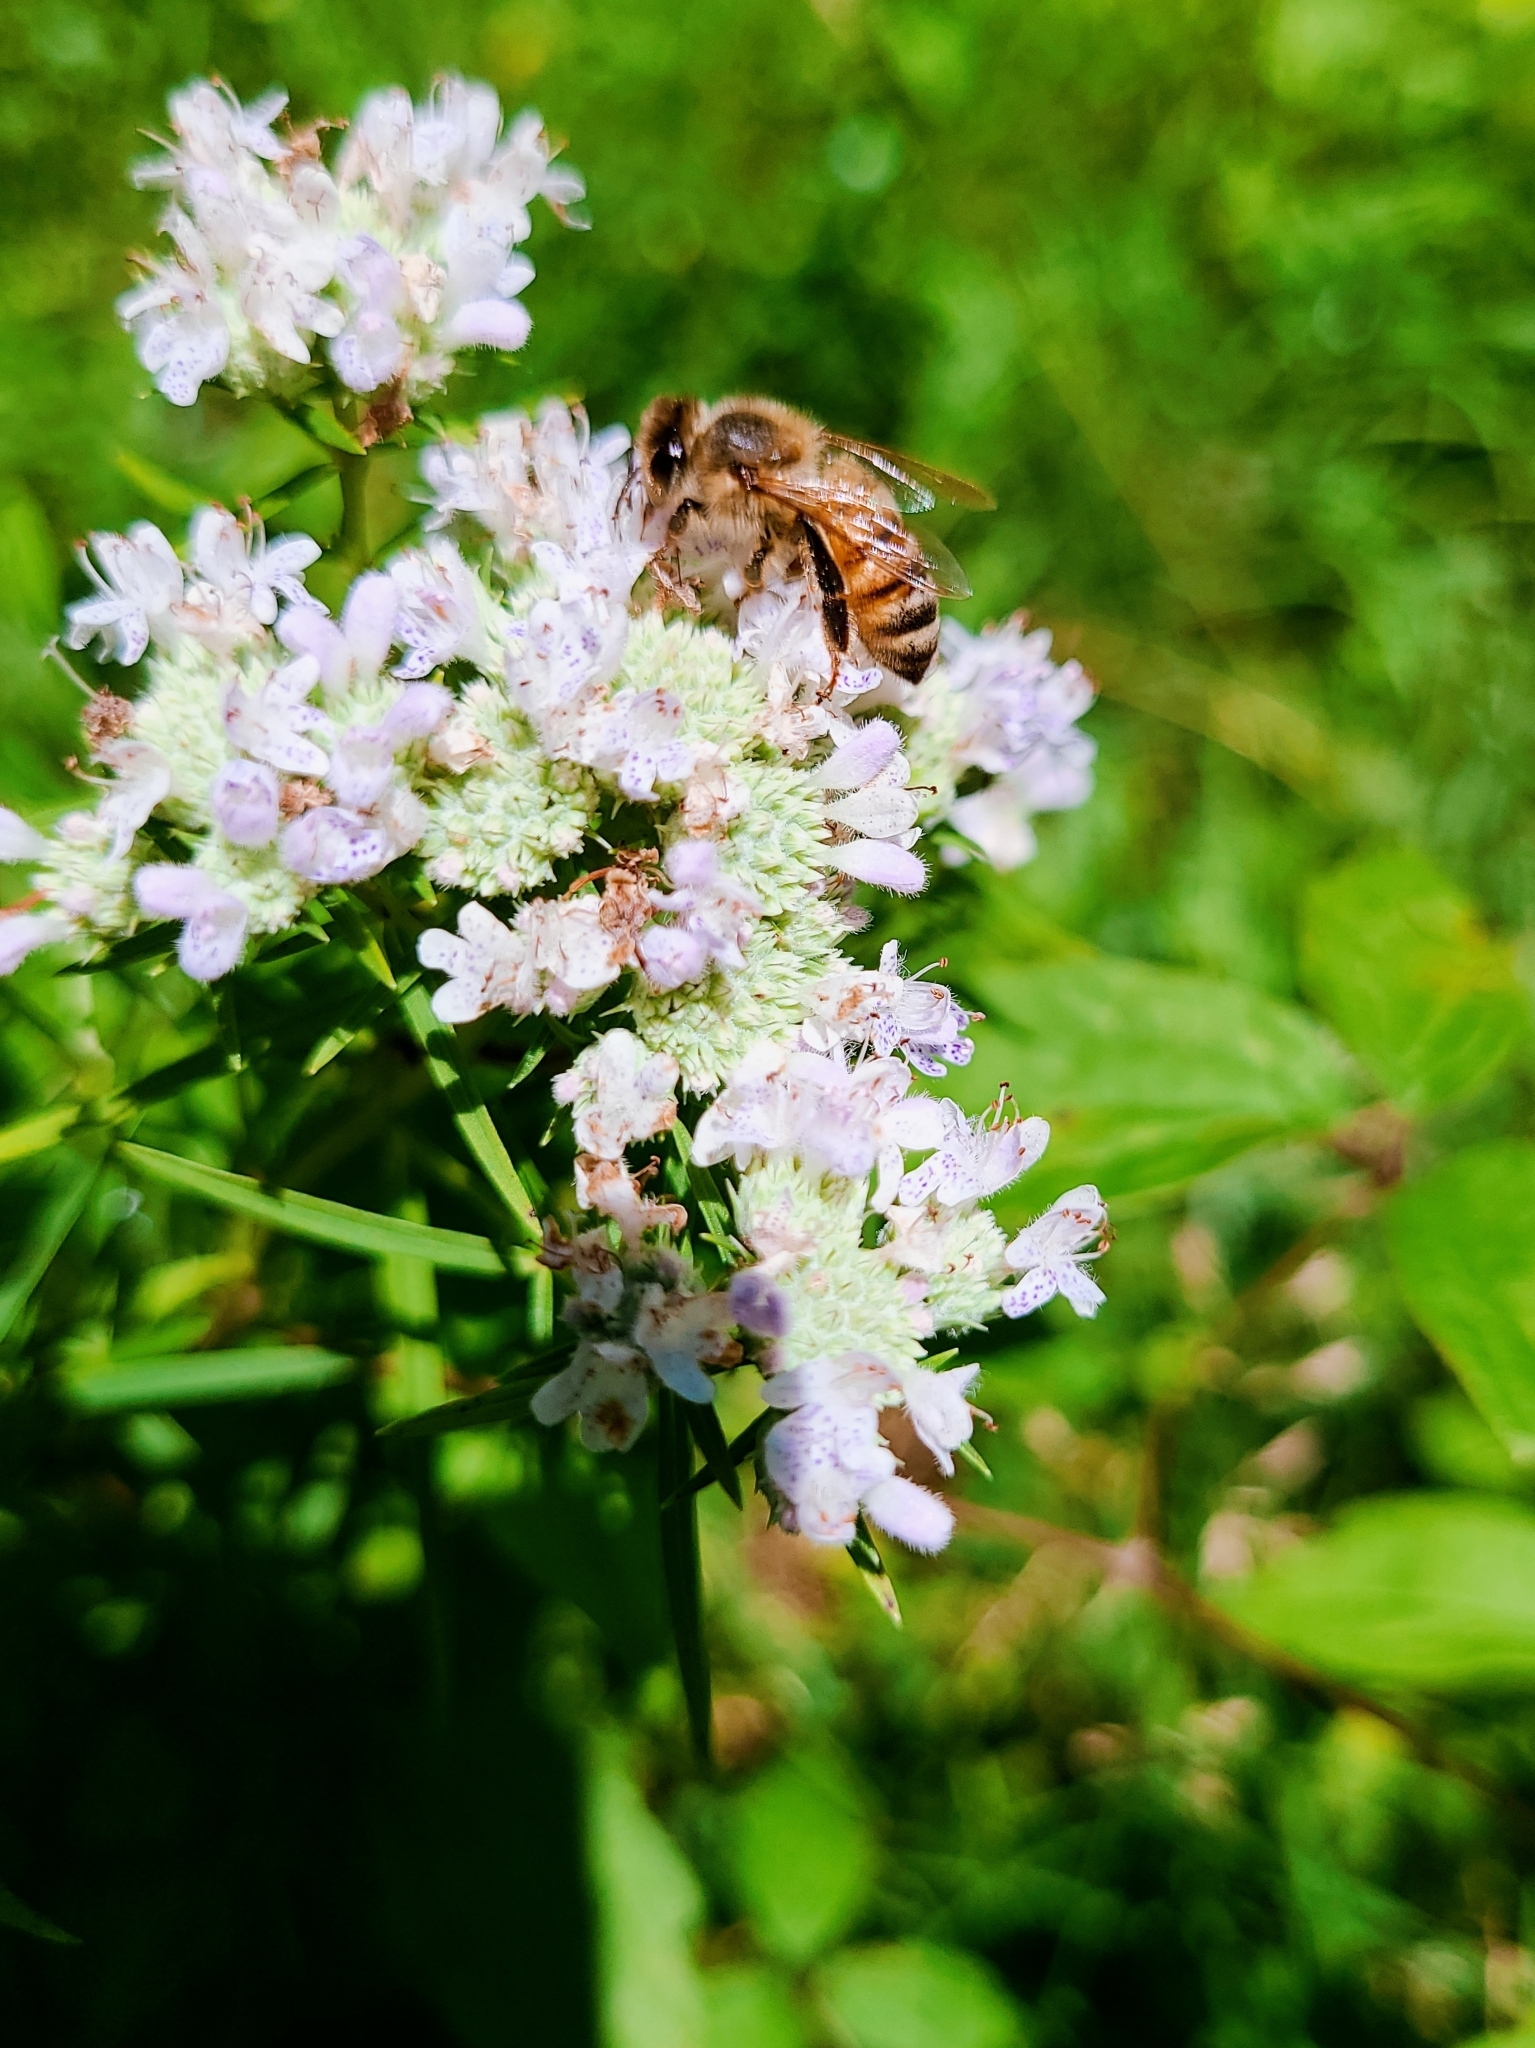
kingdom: Animalia
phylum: Arthropoda
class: Insecta
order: Hymenoptera
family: Apidae
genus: Apis
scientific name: Apis mellifera
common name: Honey bee
